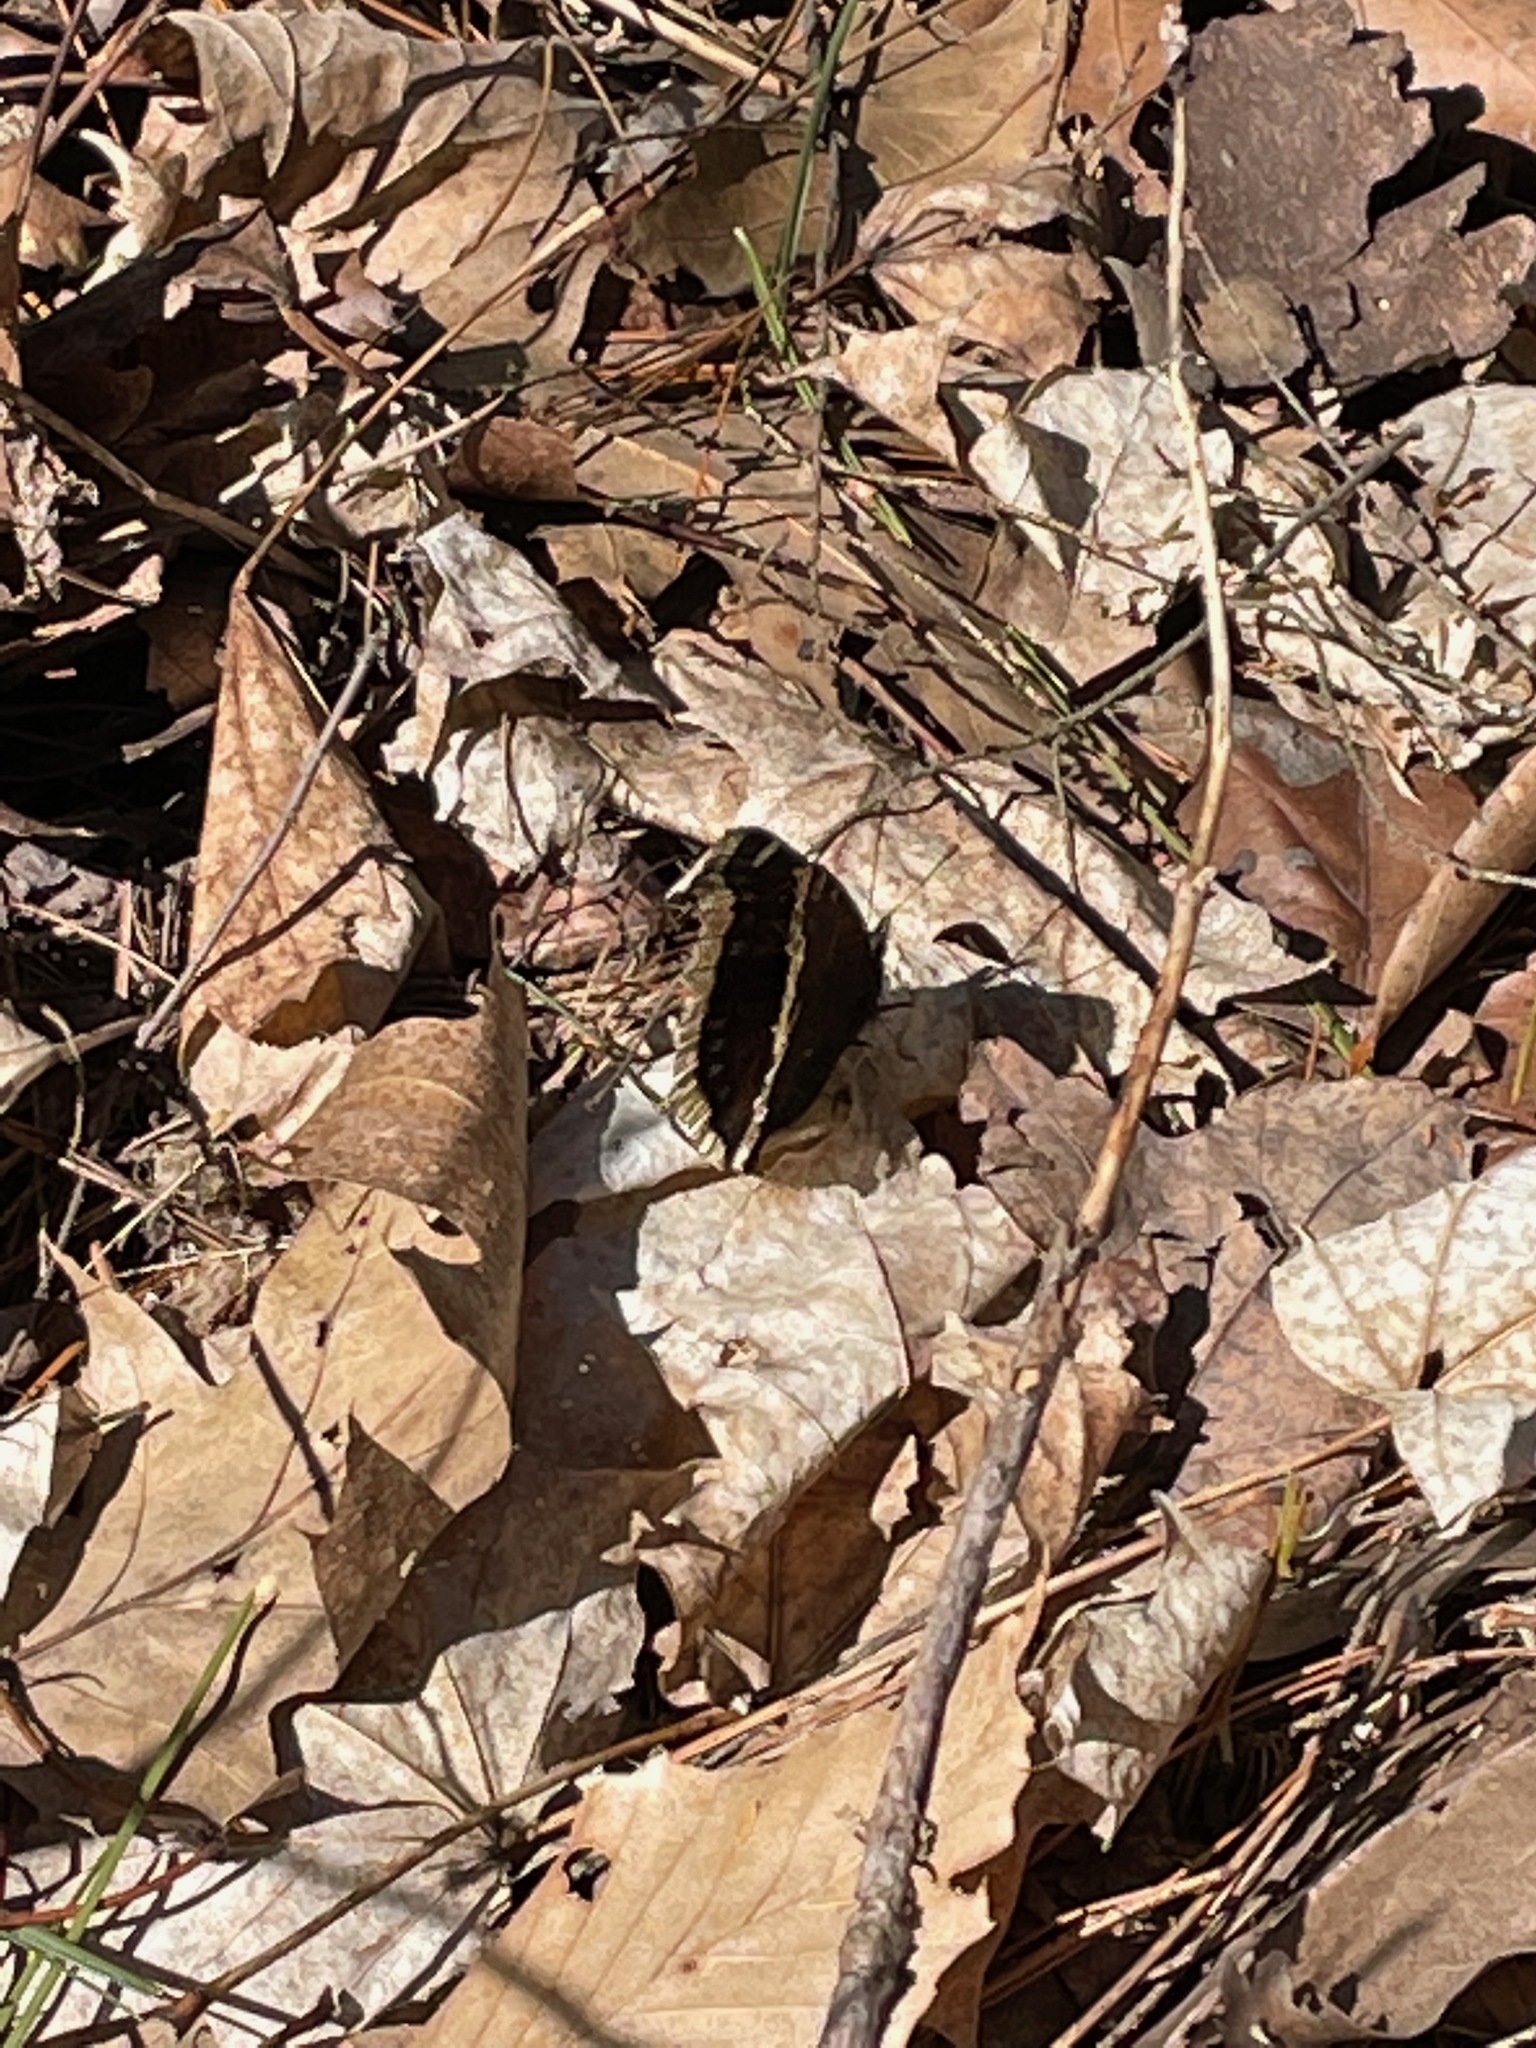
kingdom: Animalia
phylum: Arthropoda
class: Insecta
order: Lepidoptera
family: Nymphalidae
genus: Nymphalis
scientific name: Nymphalis antiopa
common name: Camberwell beauty
